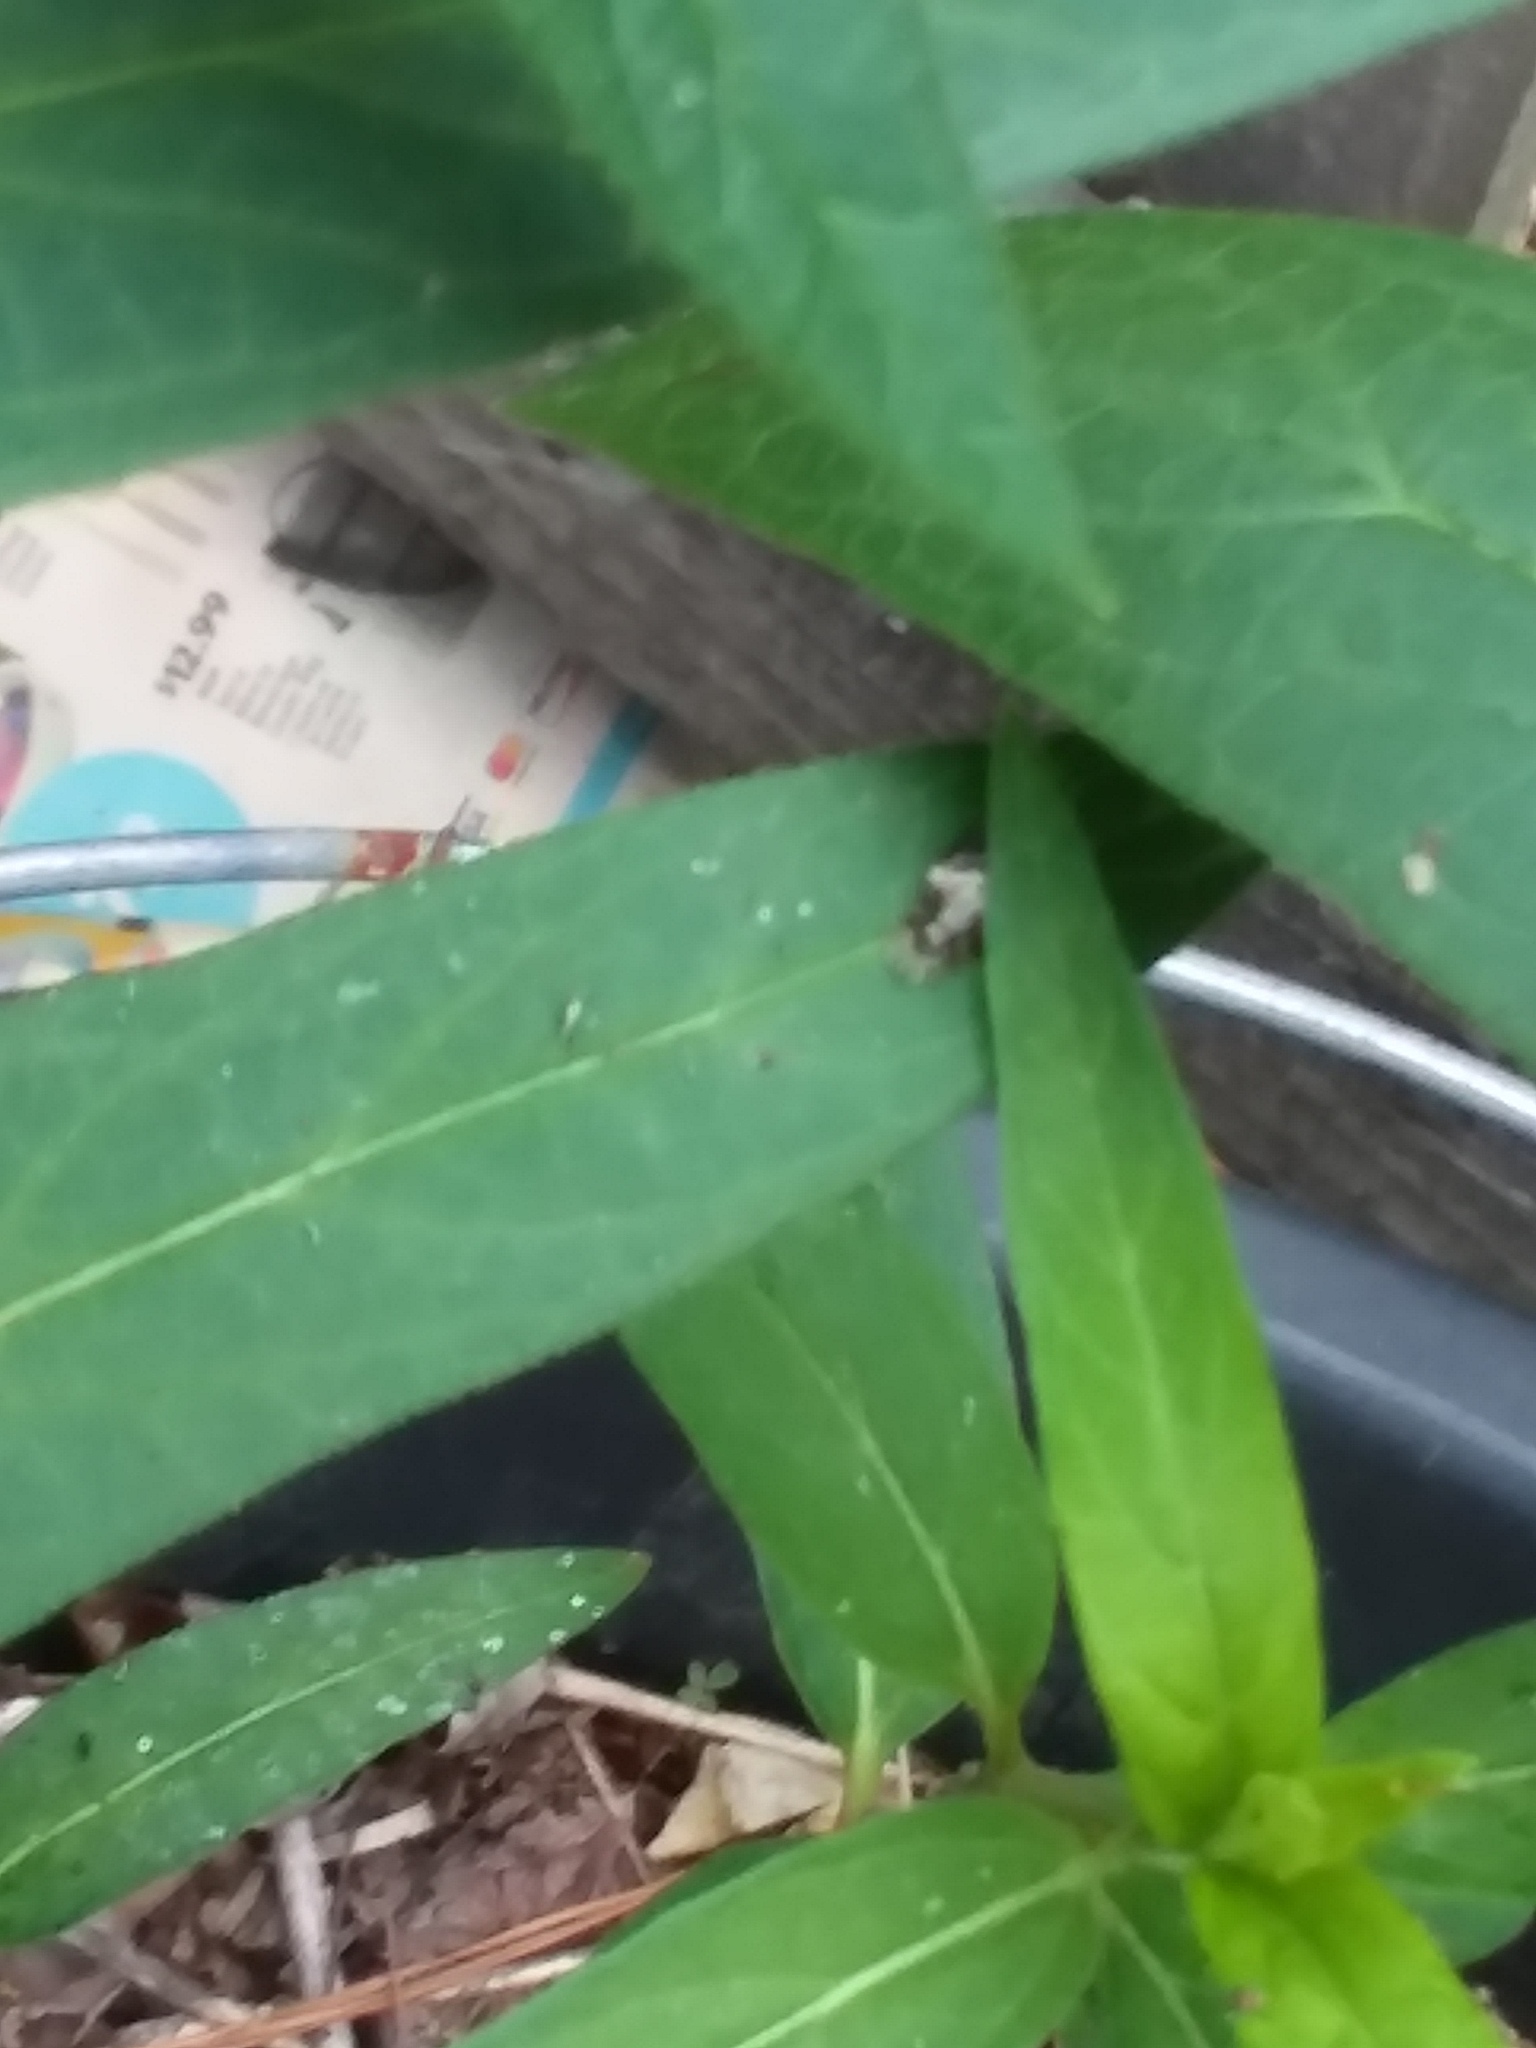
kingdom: Animalia
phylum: Arthropoda
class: Insecta
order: Diptera
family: Syrphidae
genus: Ocyptamus
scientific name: Ocyptamus fuscipennis
